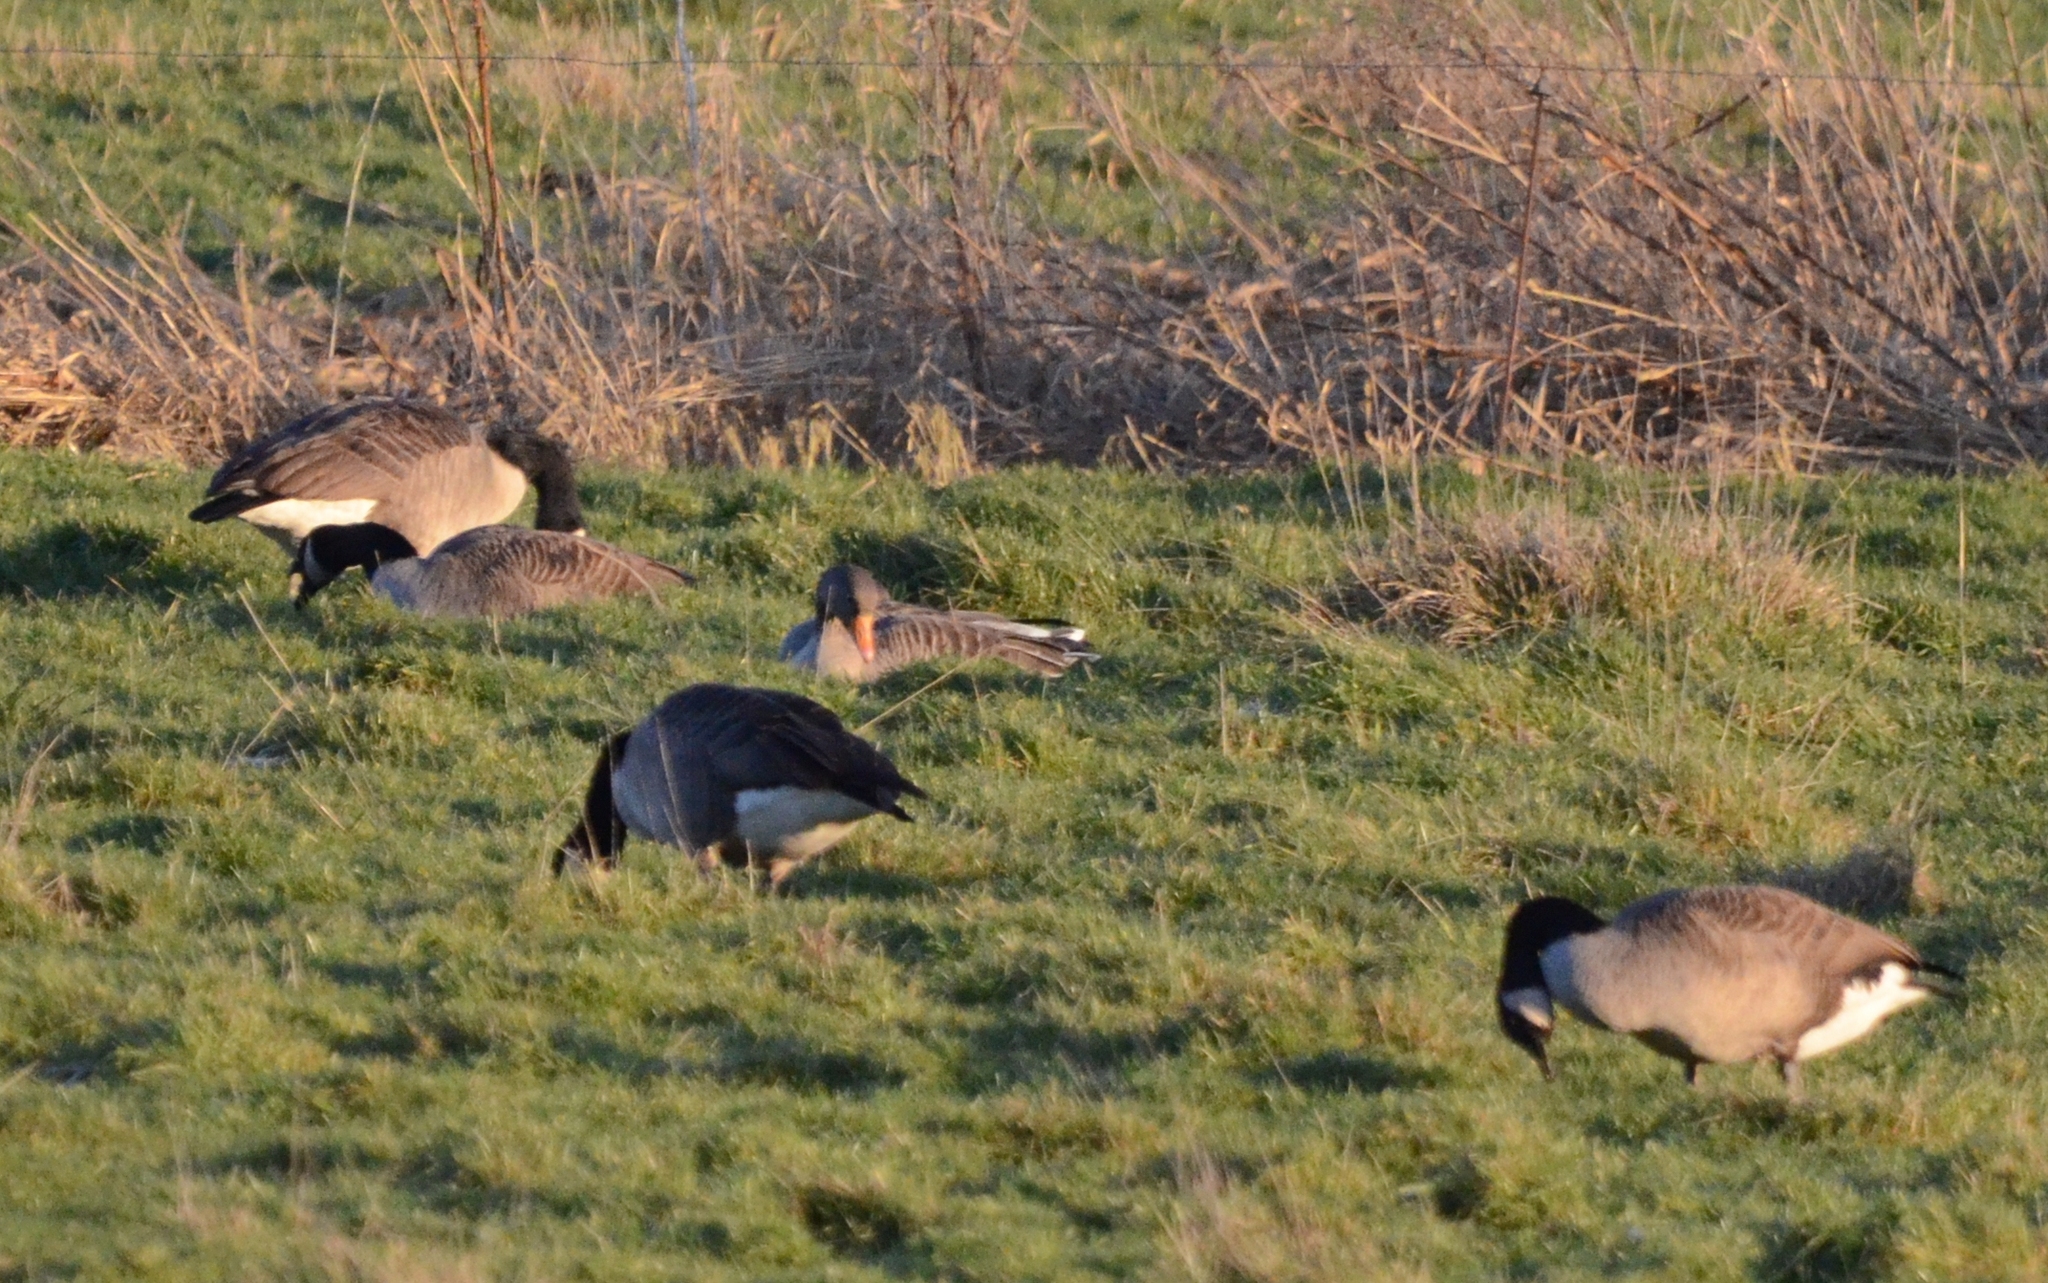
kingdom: Animalia
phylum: Chordata
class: Aves
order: Anseriformes
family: Anatidae
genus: Branta
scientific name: Branta canadensis
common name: Canada goose
